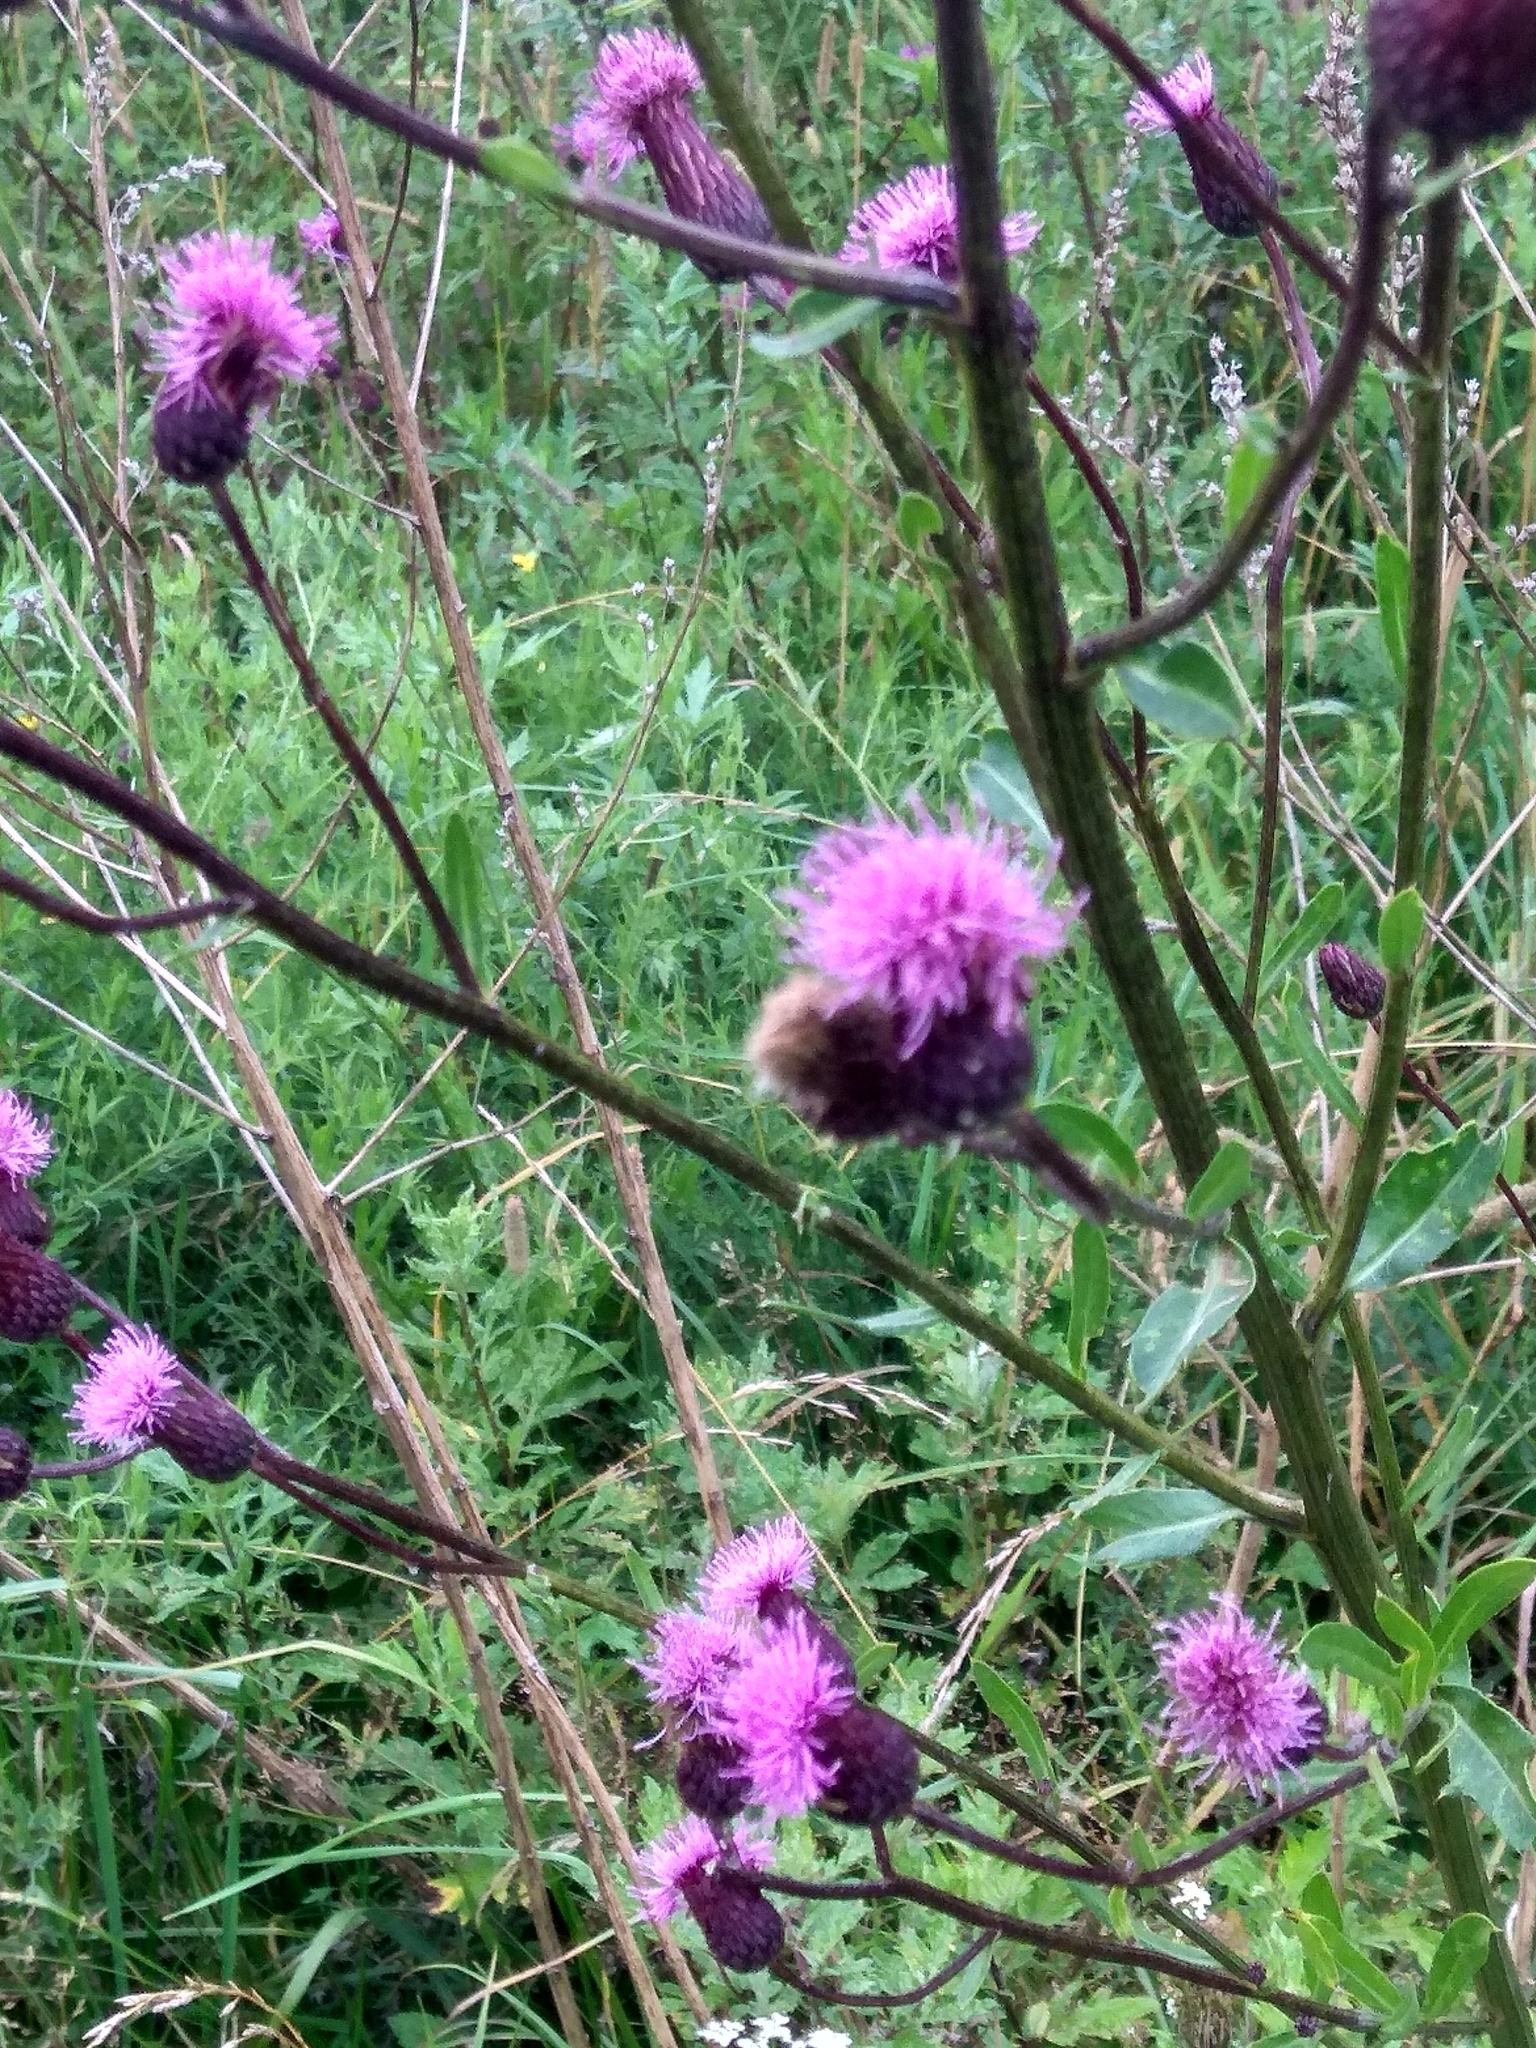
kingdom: Plantae
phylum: Tracheophyta
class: Magnoliopsida
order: Asterales
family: Asteraceae
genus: Cirsium
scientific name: Cirsium arvense
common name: Creeping thistle
